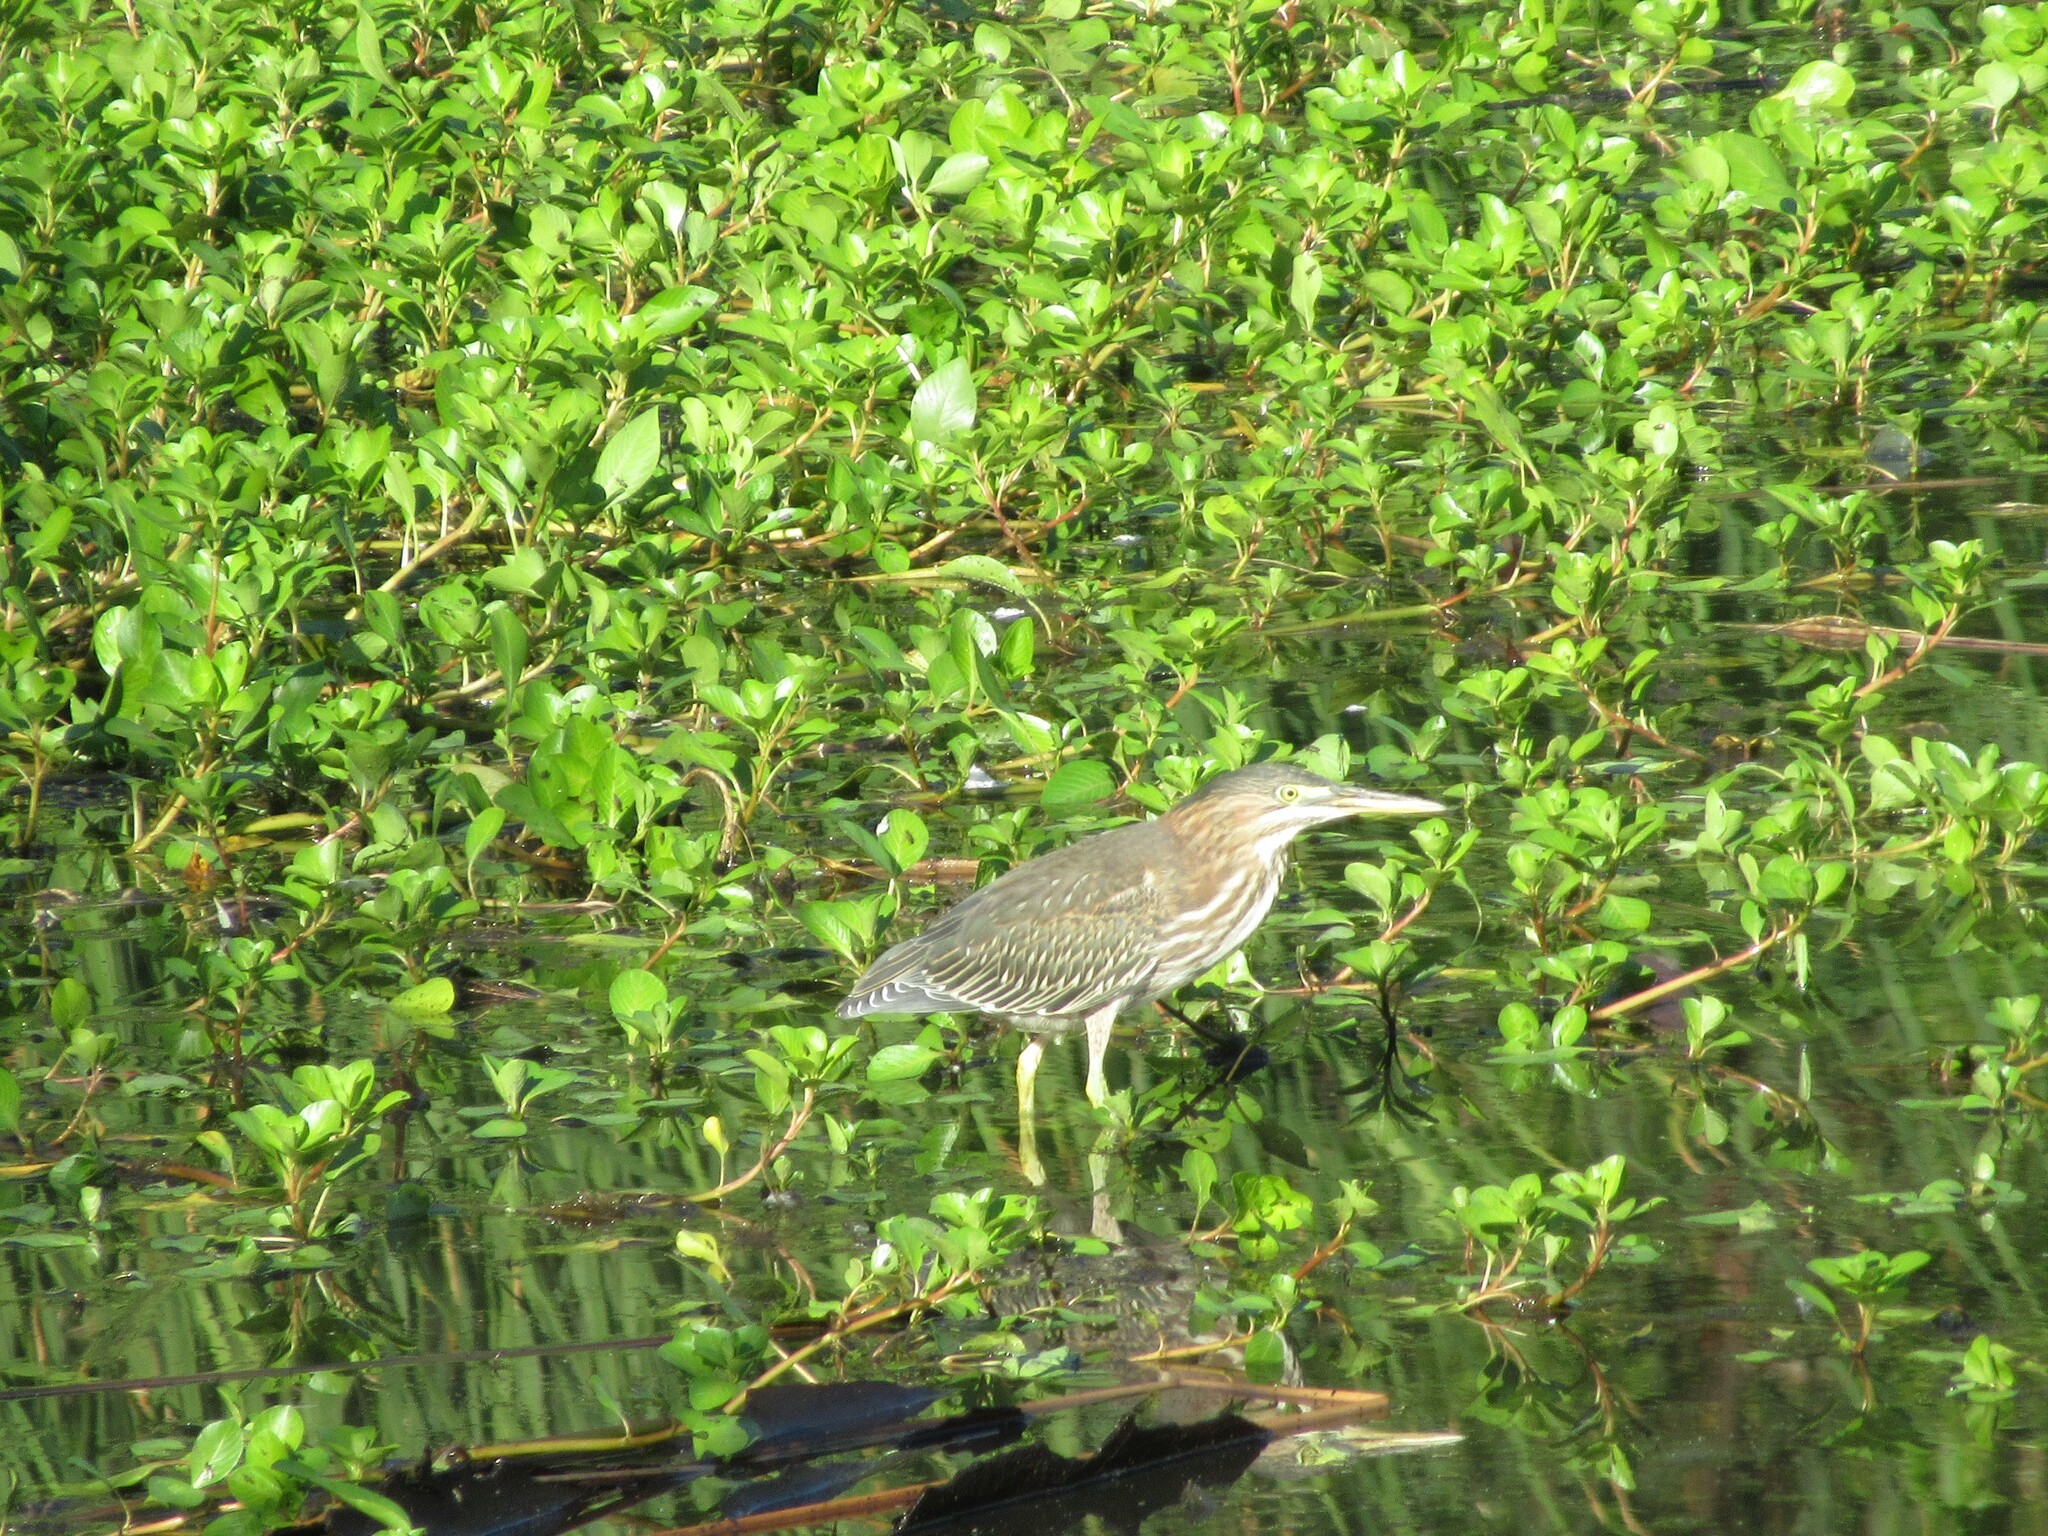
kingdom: Animalia
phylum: Chordata
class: Aves
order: Pelecaniformes
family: Ardeidae
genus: Butorides
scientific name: Butorides virescens
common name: Green heron
